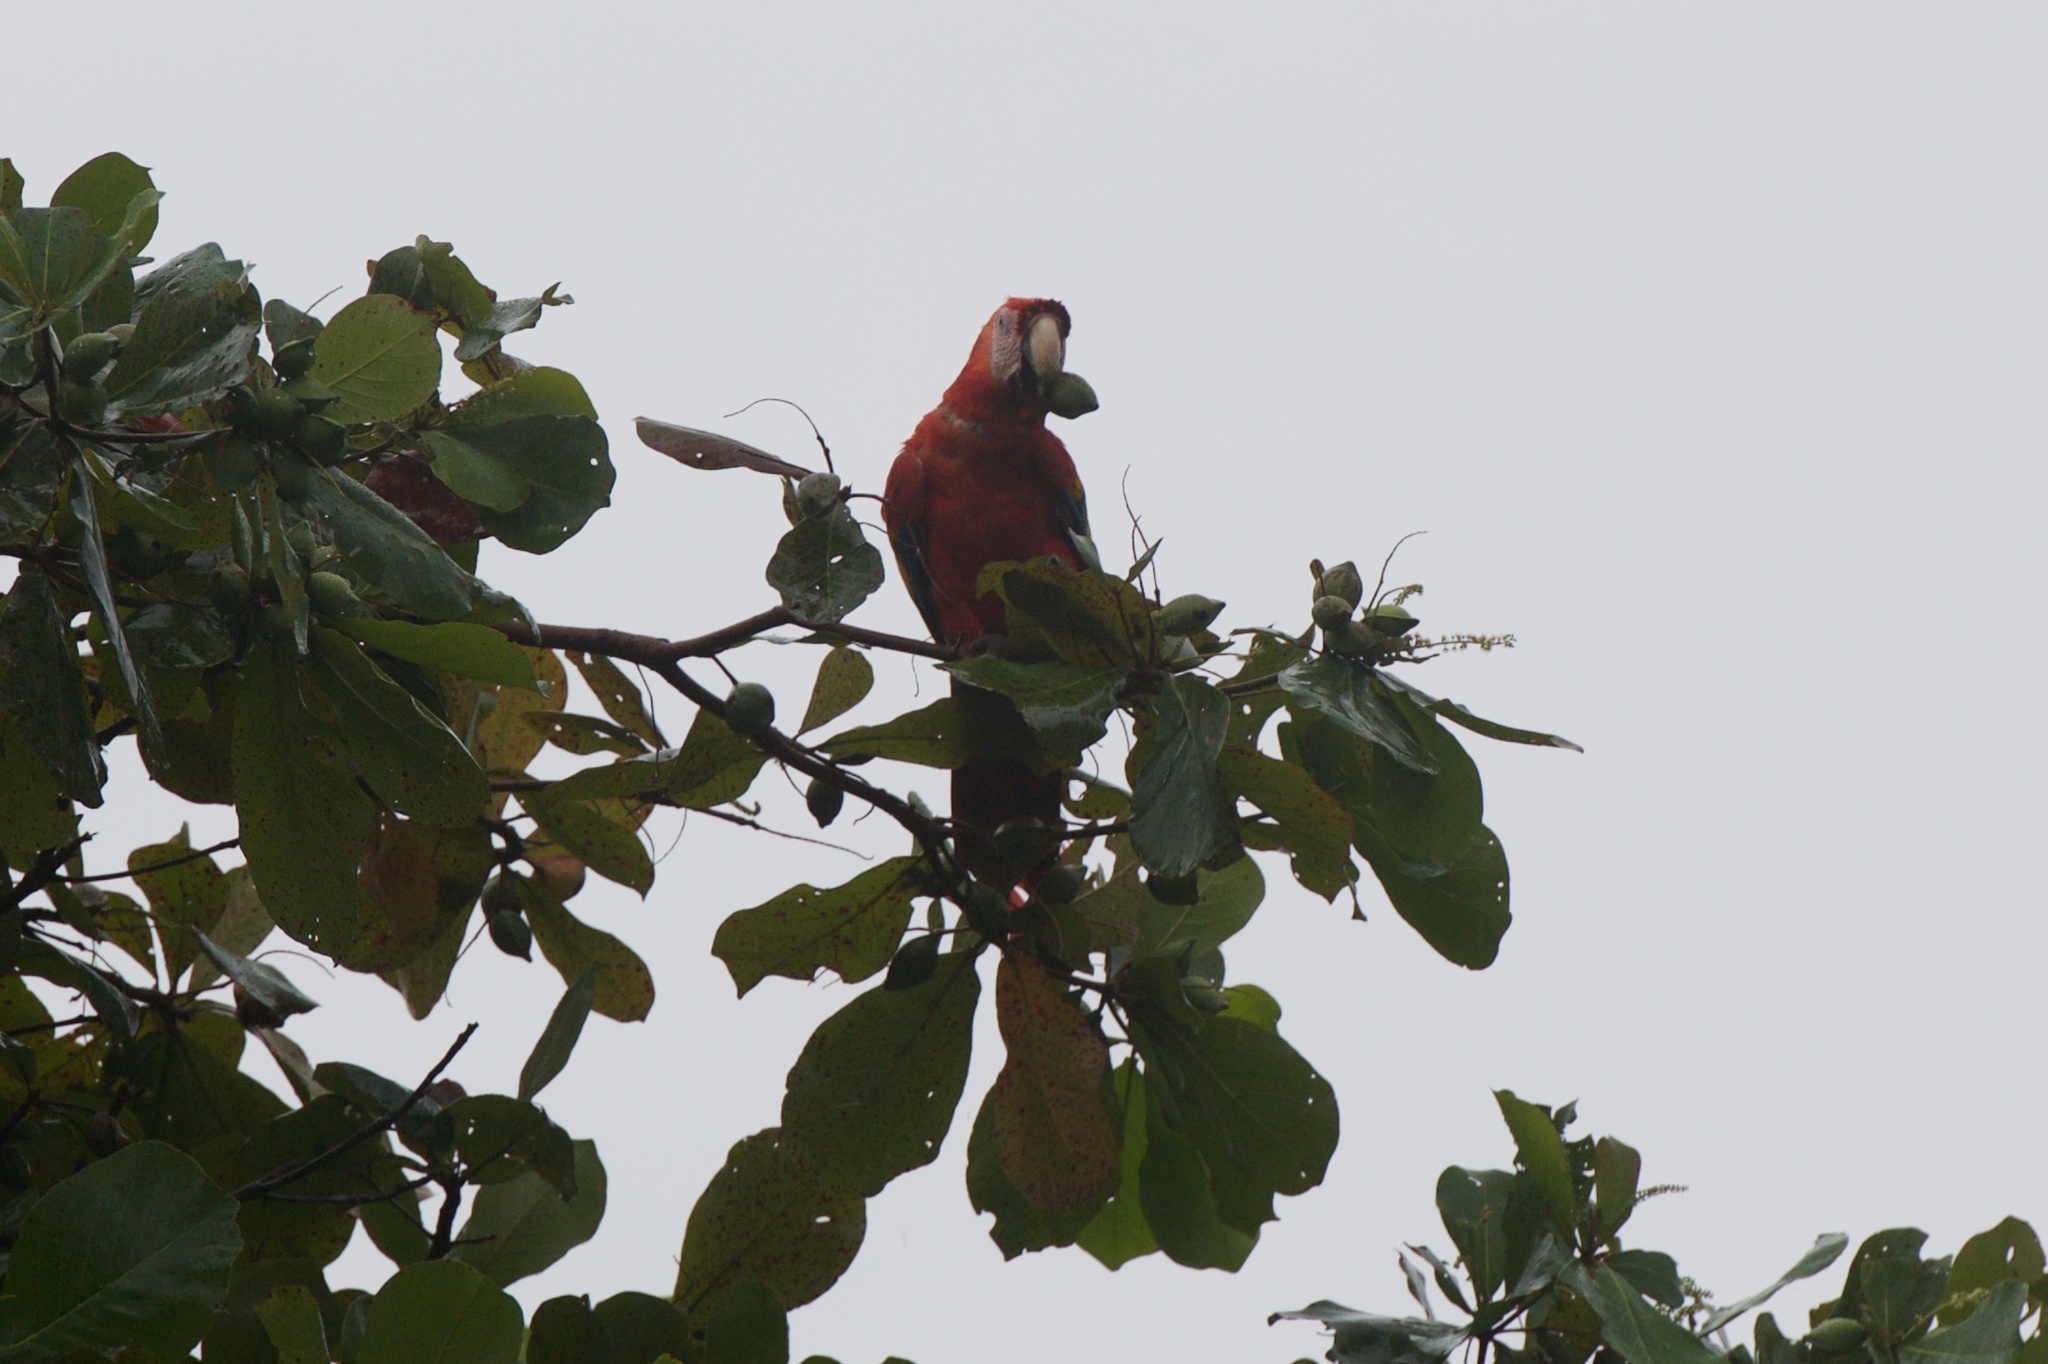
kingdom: Animalia
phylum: Chordata
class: Aves
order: Psittaciformes
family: Psittacidae
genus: Ara
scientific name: Ara macao
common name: Scarlet macaw
